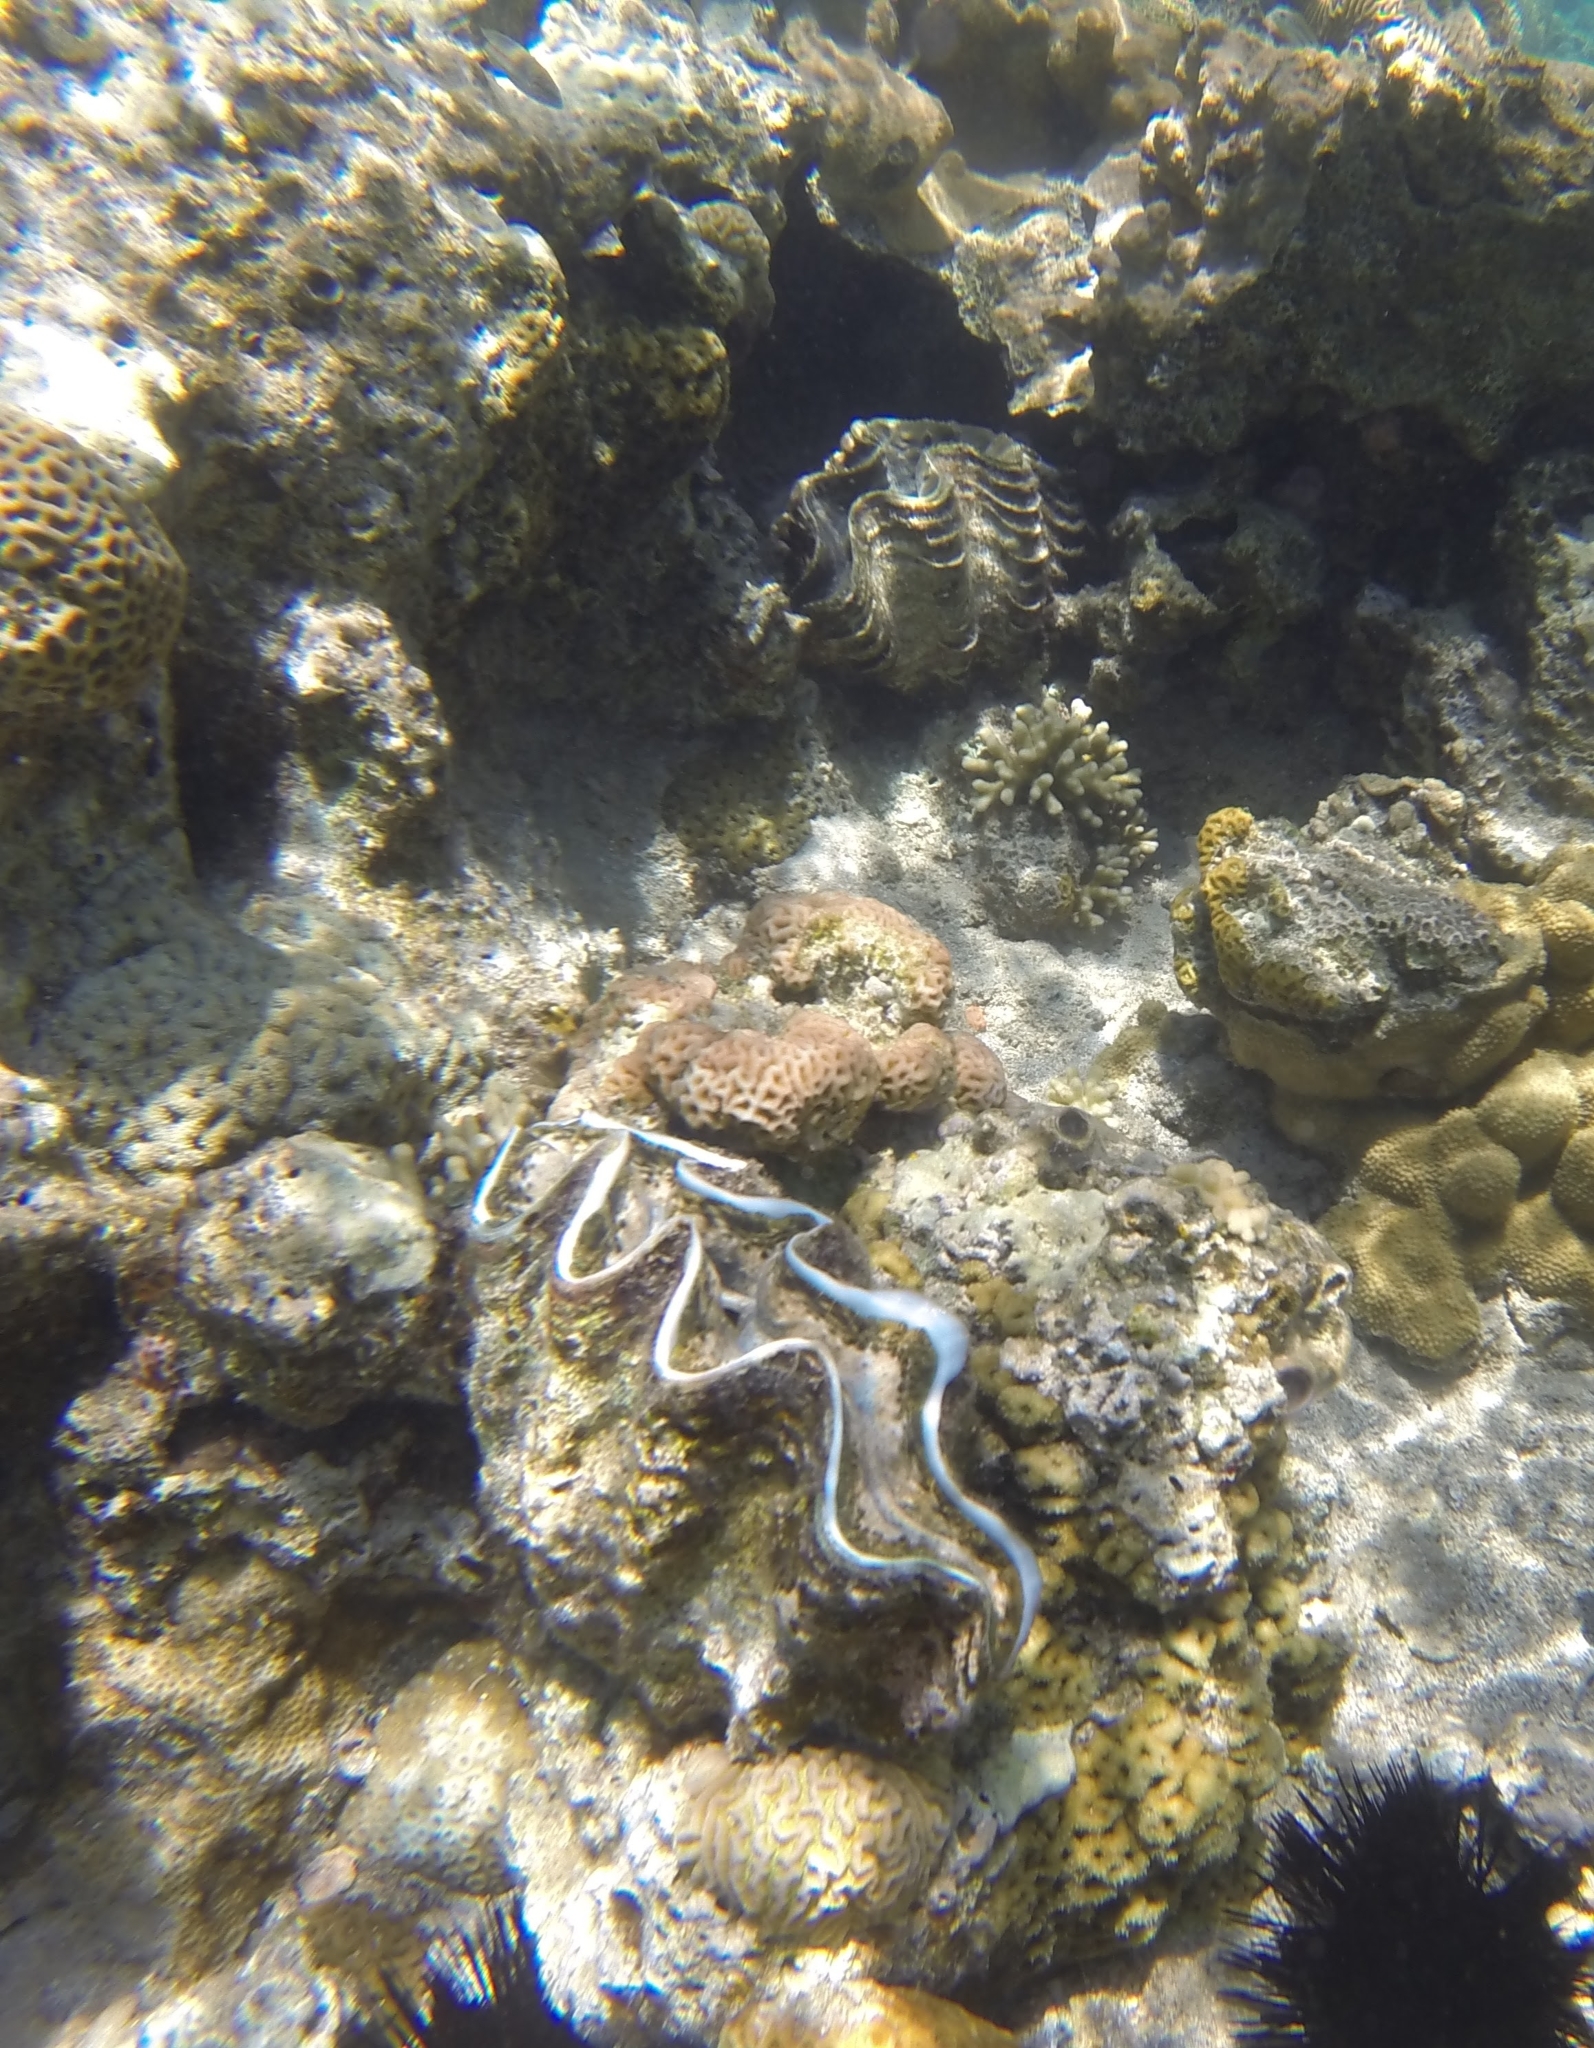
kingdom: Animalia
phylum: Mollusca
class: Bivalvia
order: Cardiida
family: Cardiidae
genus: Tridacna
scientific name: Tridacna squamosina
